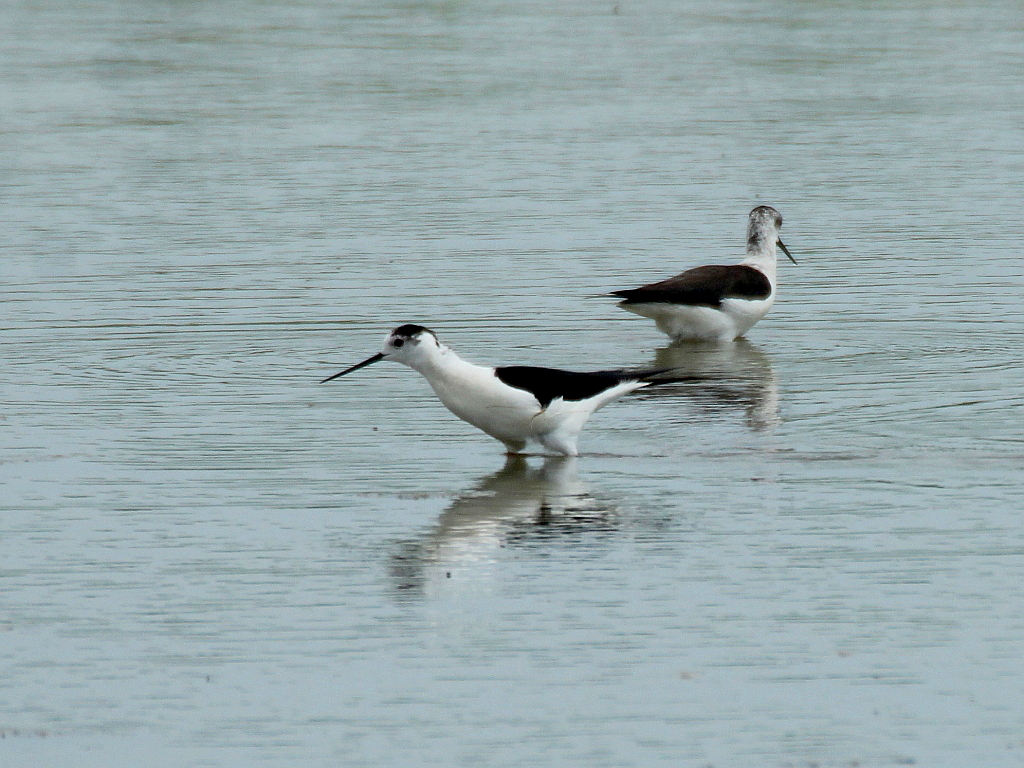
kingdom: Animalia
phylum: Chordata
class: Aves
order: Charadriiformes
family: Recurvirostridae
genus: Himantopus
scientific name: Himantopus himantopus
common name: Black-winged stilt
